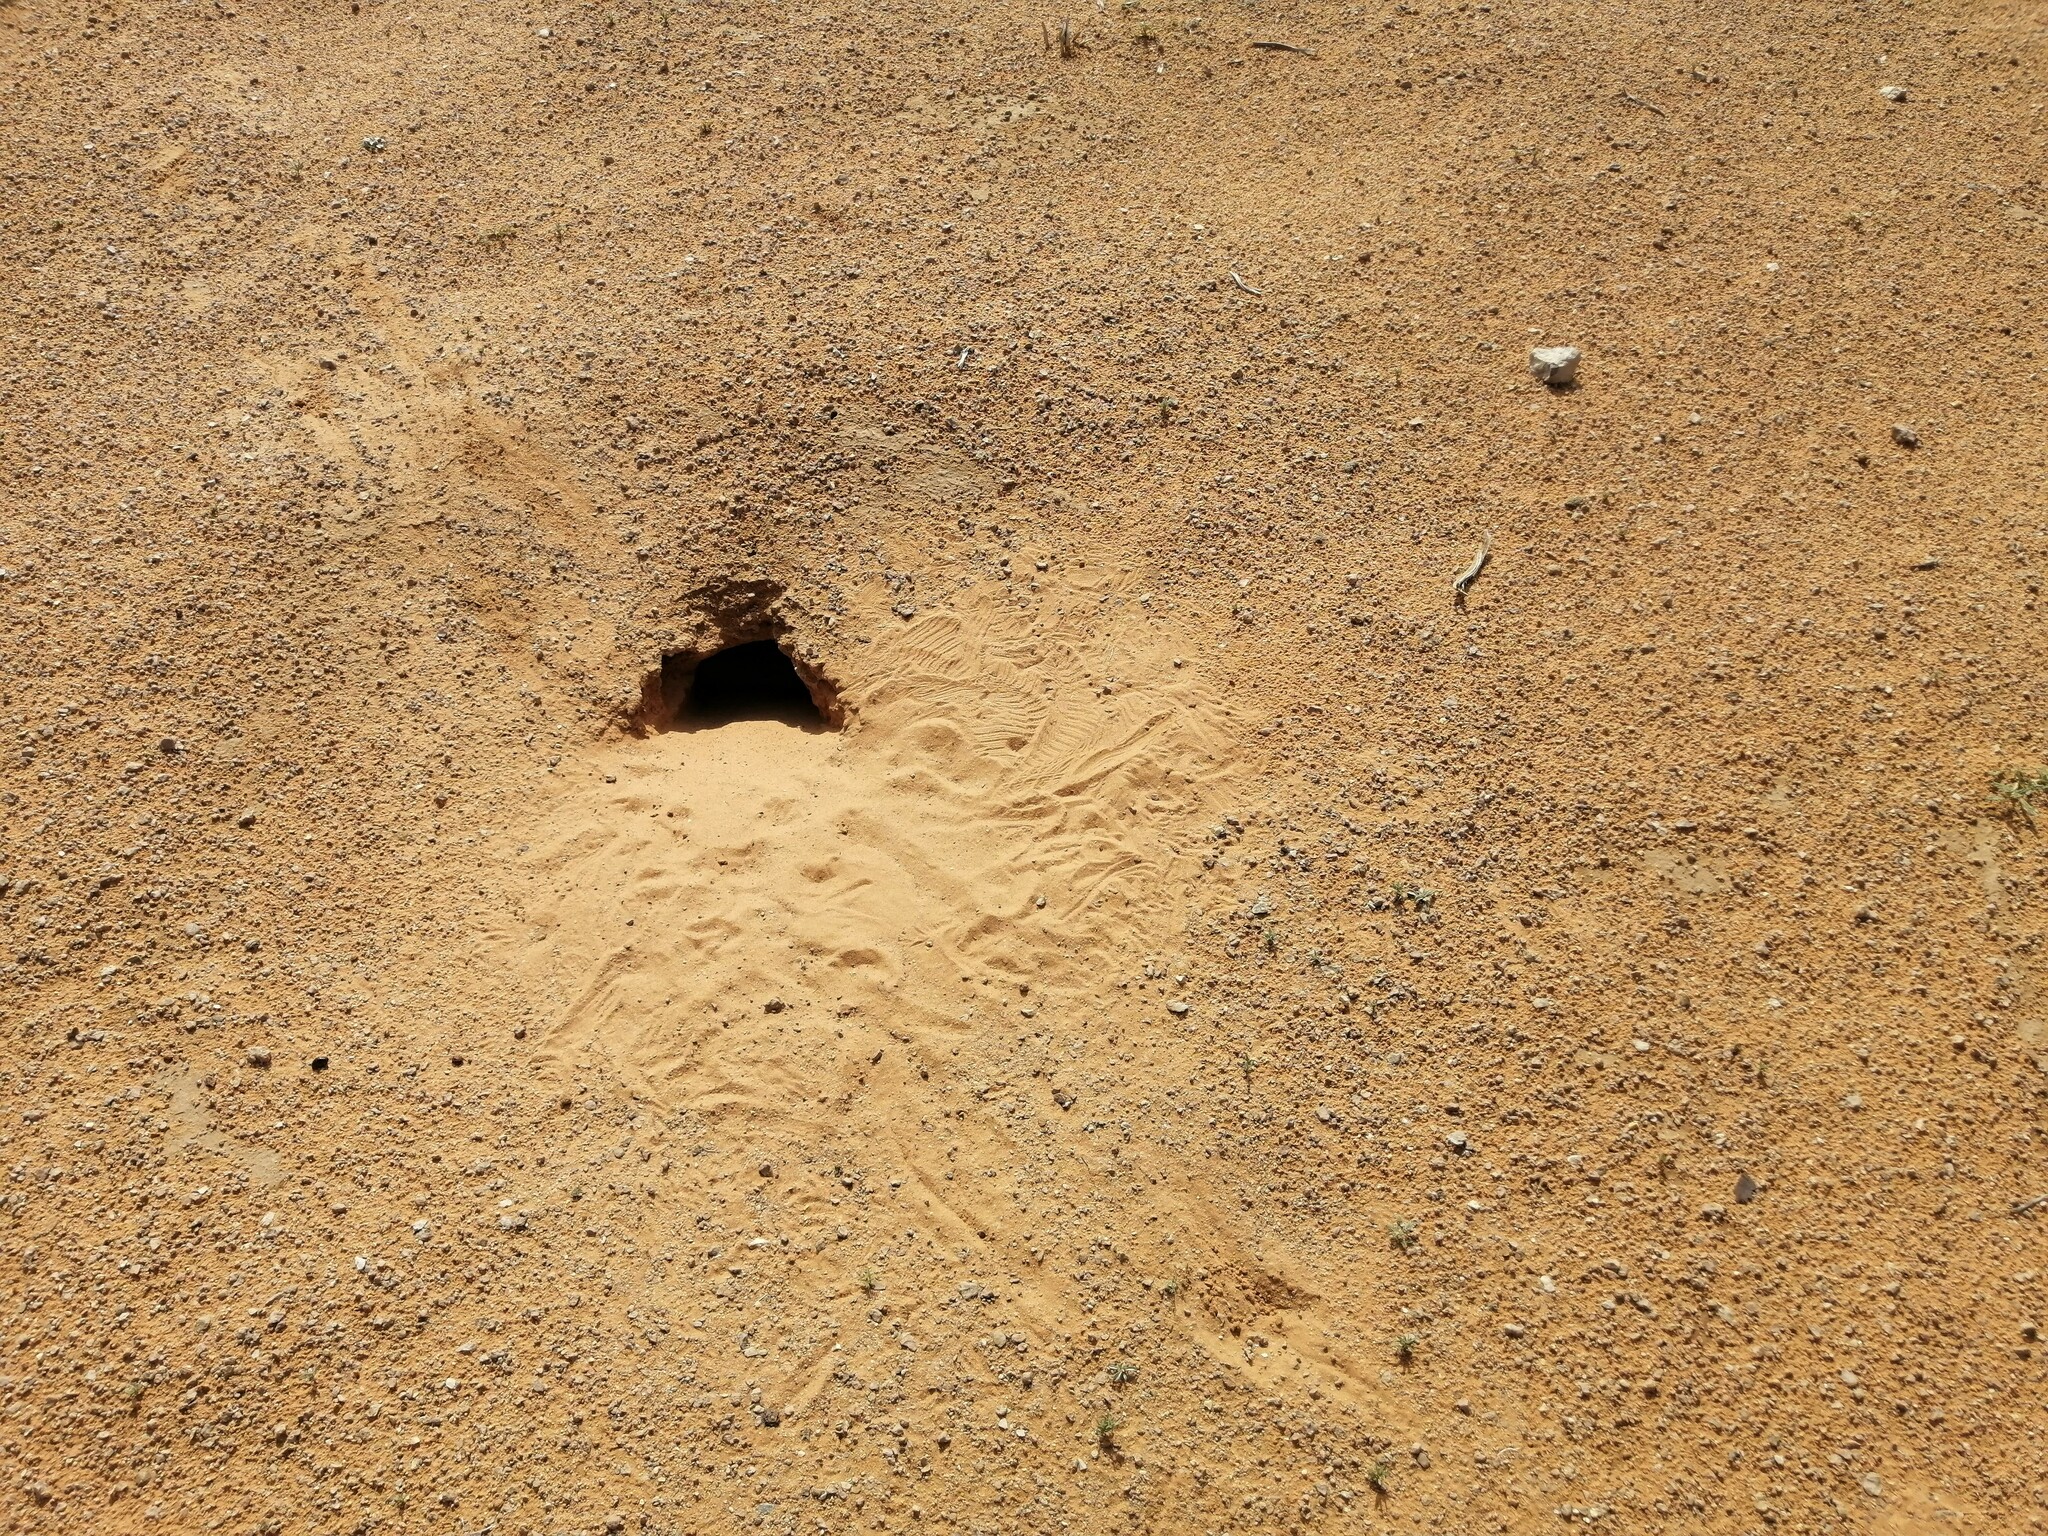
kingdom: Animalia
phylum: Chordata
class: Squamata
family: Agamidae
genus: Uromastyx
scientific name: Uromastyx aegyptia
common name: Egyptian mastigure
